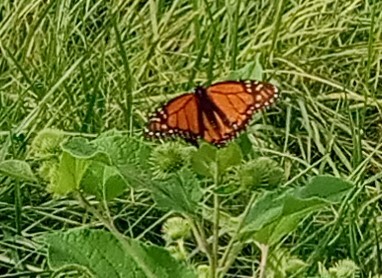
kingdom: Animalia
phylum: Arthropoda
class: Insecta
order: Lepidoptera
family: Nymphalidae
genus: Danaus
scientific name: Danaus plexippus
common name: Monarch
